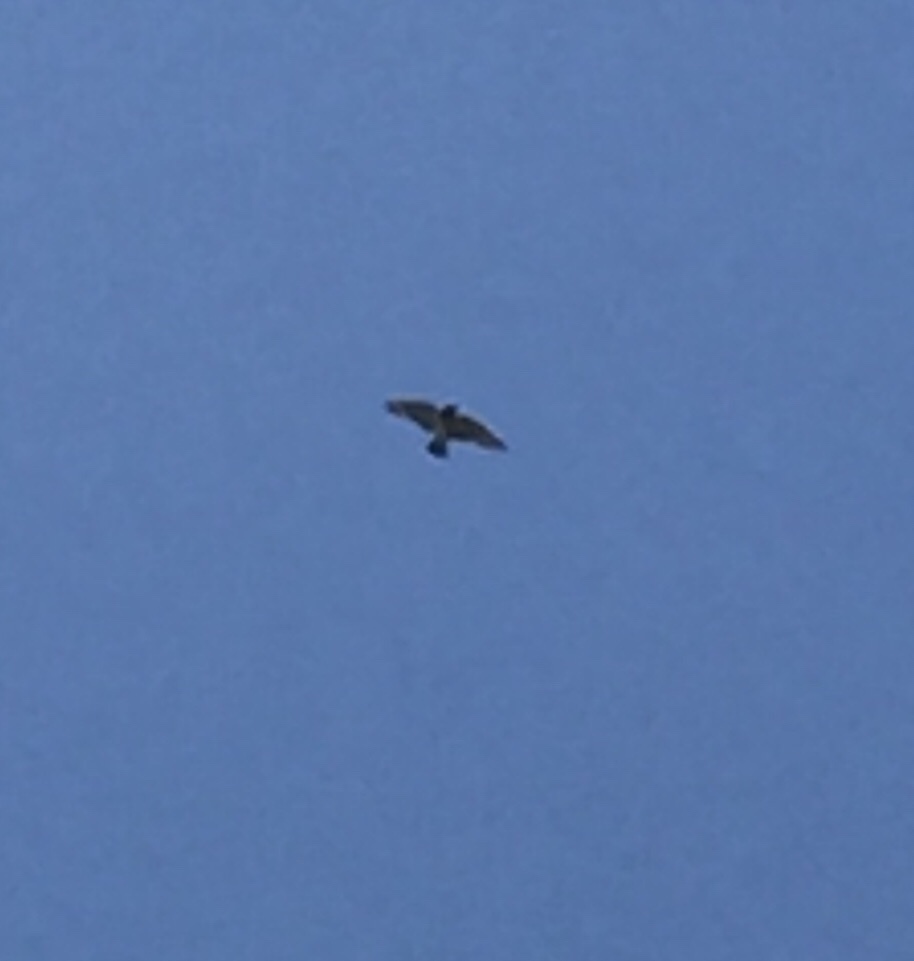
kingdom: Animalia
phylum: Chordata
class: Aves
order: Passeriformes
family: Artamidae
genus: Artamus
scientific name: Artamus leucoryn
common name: White-breasted woodswallow
